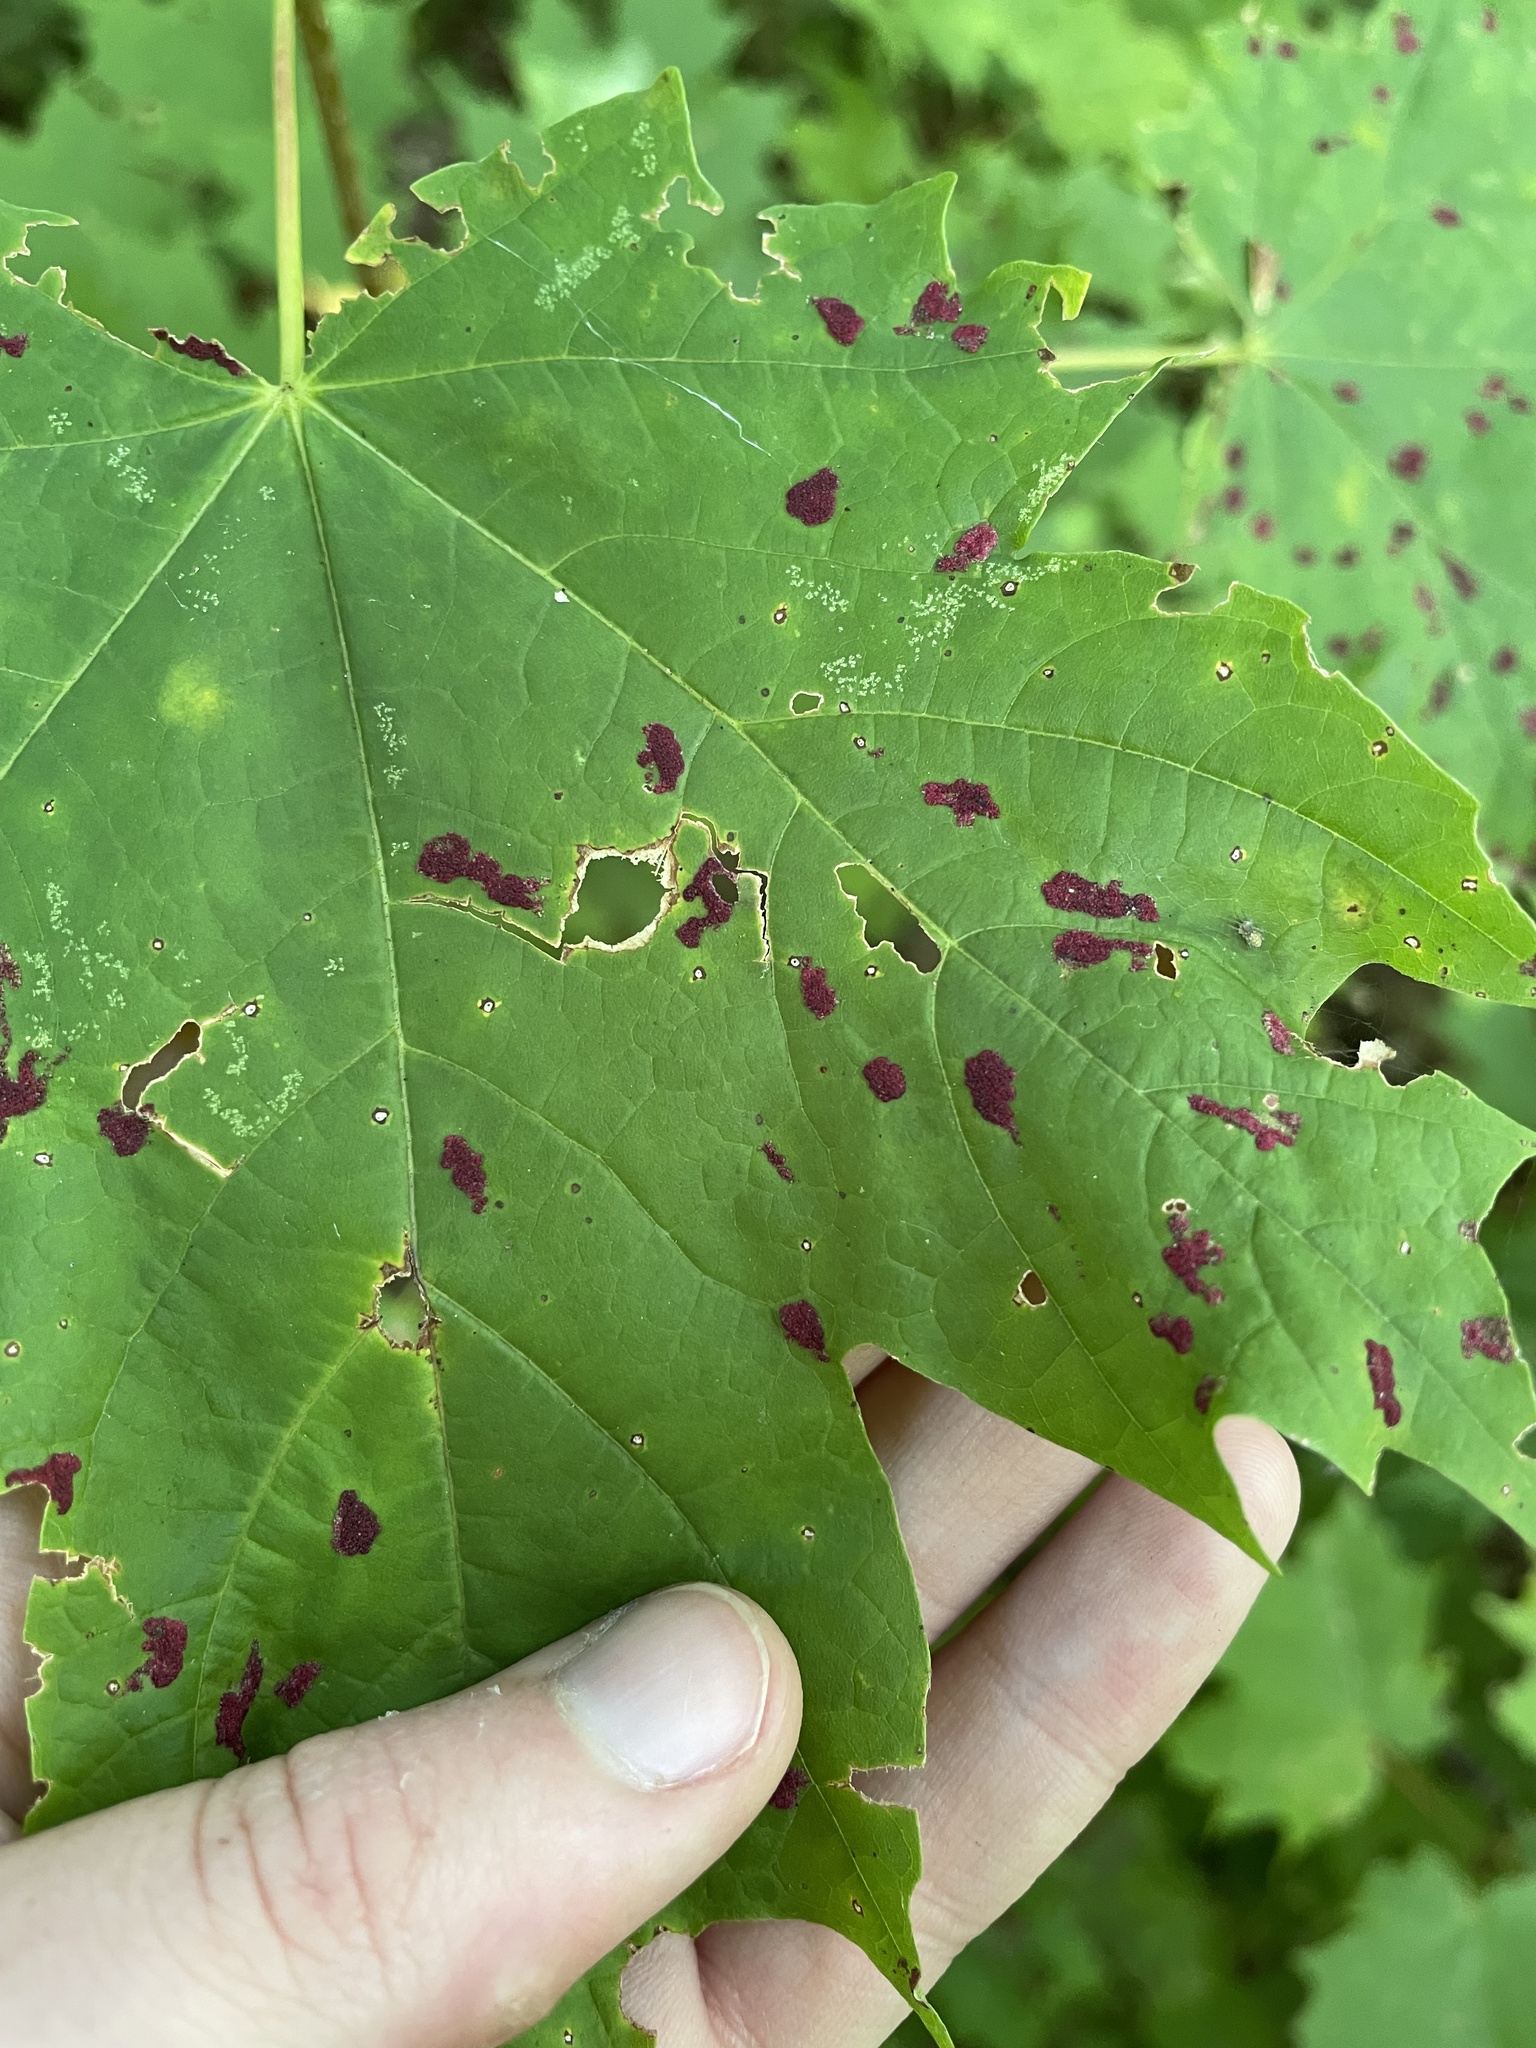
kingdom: Animalia
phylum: Arthropoda
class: Arachnida
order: Trombidiformes
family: Eriophyidae
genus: Aculus
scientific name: Aculus
